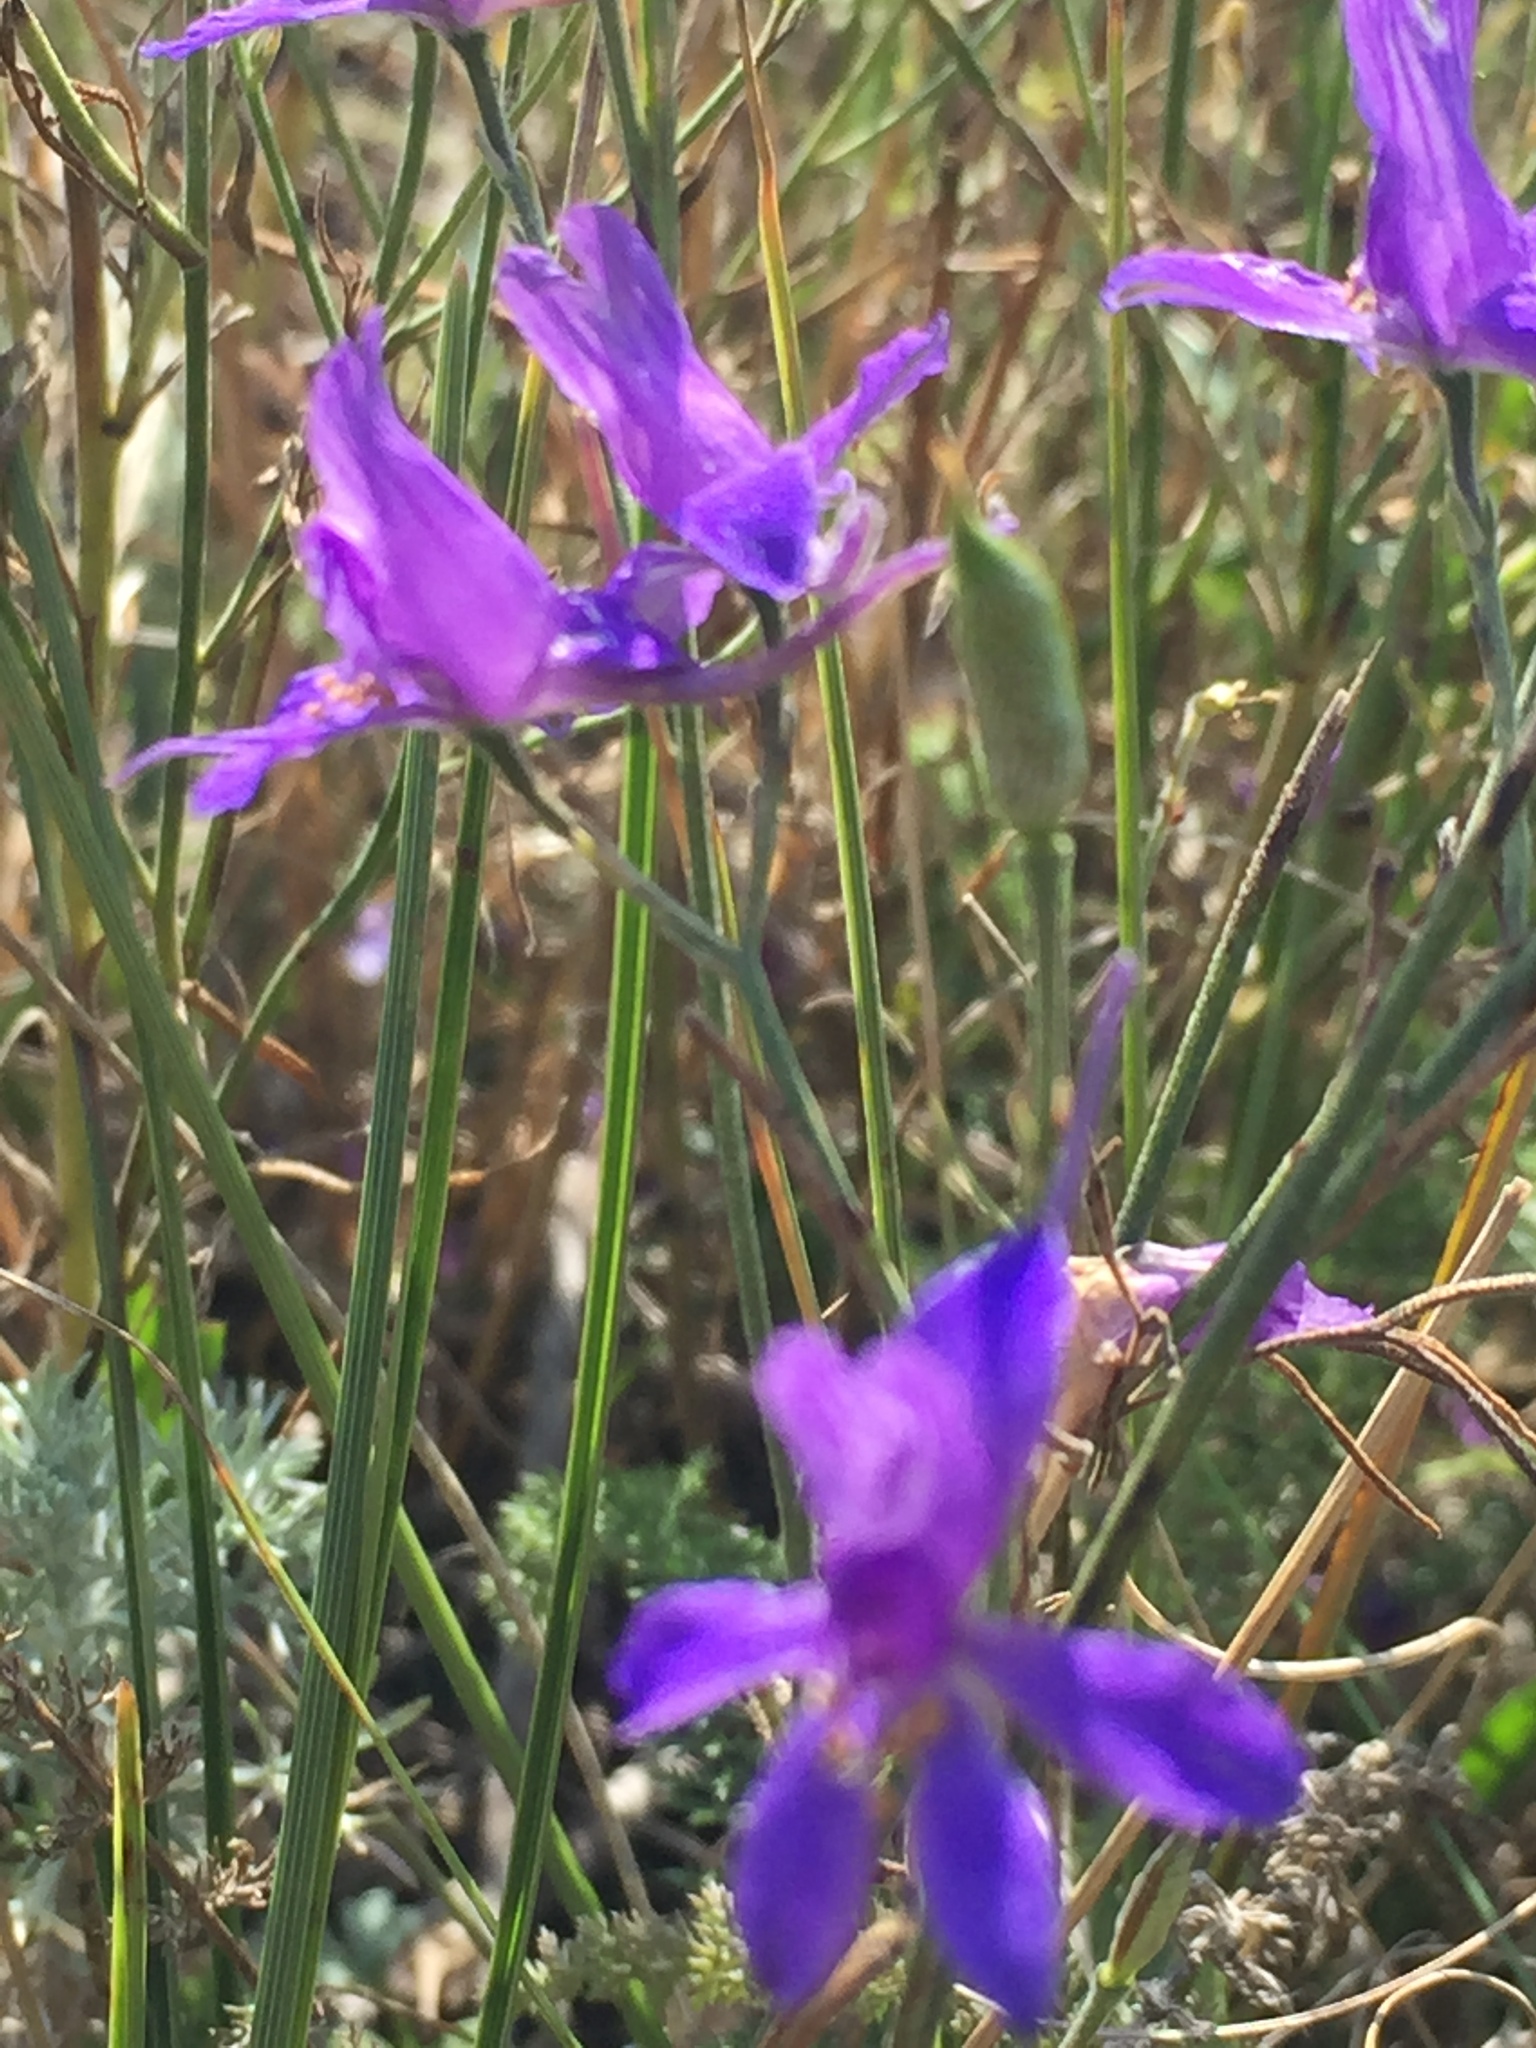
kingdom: Plantae
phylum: Tracheophyta
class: Magnoliopsida
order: Ranunculales
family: Ranunculaceae
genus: Delphinium
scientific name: Delphinium consolida
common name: Branching larkspur
